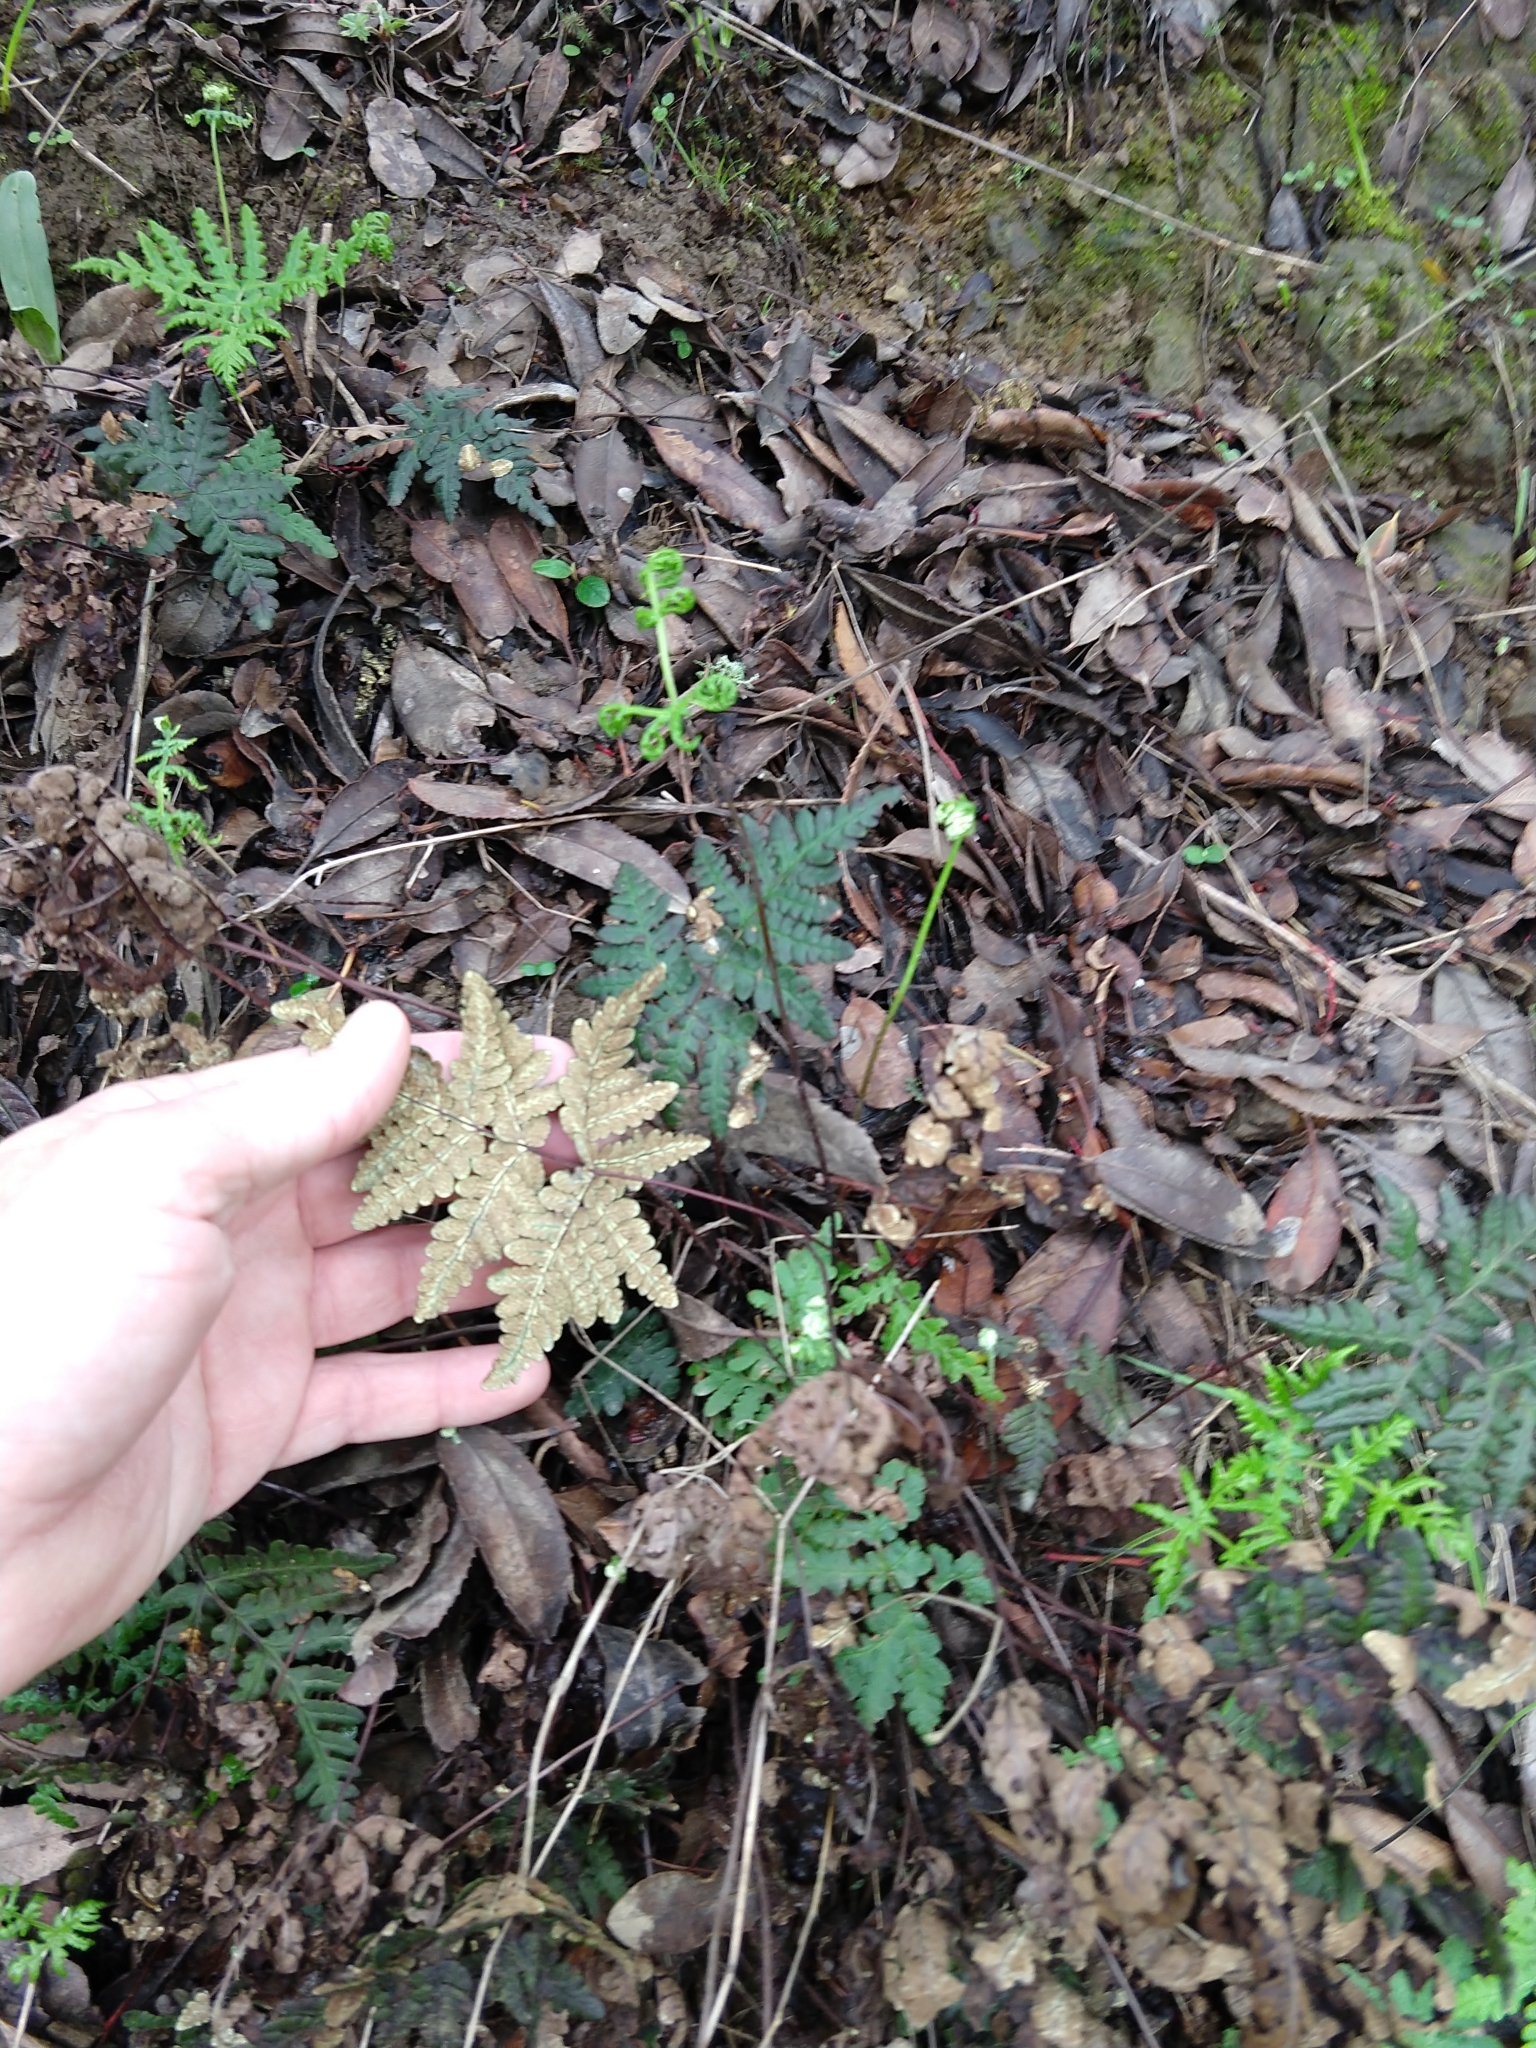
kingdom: Plantae
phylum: Tracheophyta
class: Polypodiopsida
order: Polypodiales
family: Pteridaceae
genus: Pentagramma
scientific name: Pentagramma triangularis
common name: Gold fern
